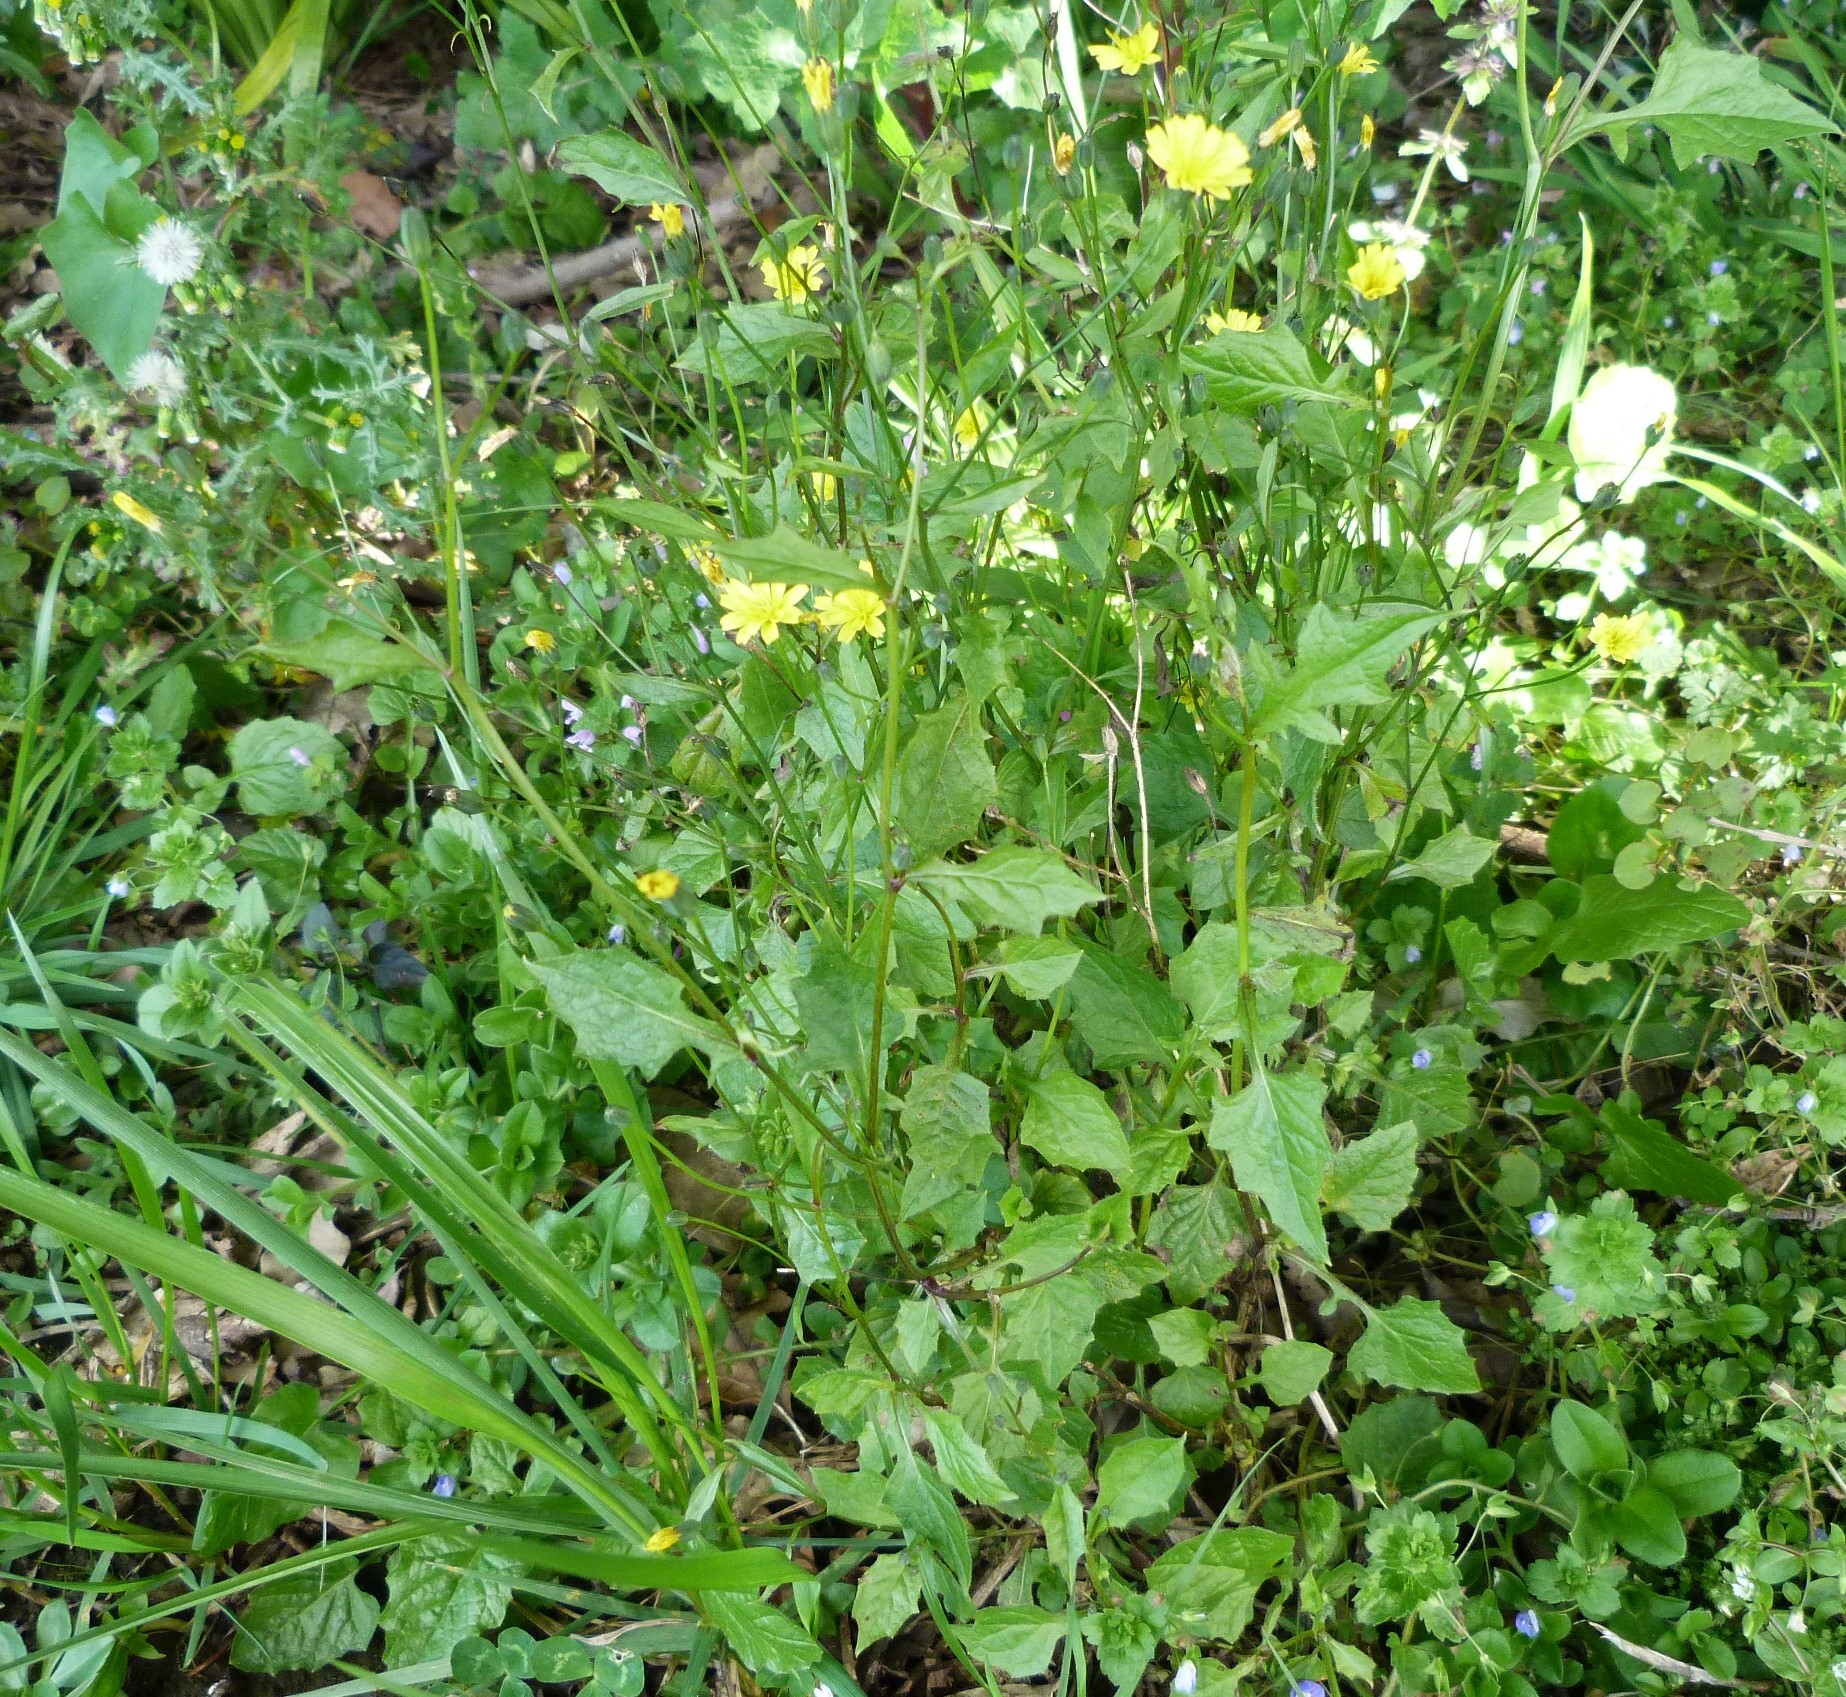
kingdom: Plantae
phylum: Tracheophyta
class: Magnoliopsida
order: Asterales
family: Asteraceae
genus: Crepis
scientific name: Crepis capillaris
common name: Smooth hawksbeard
